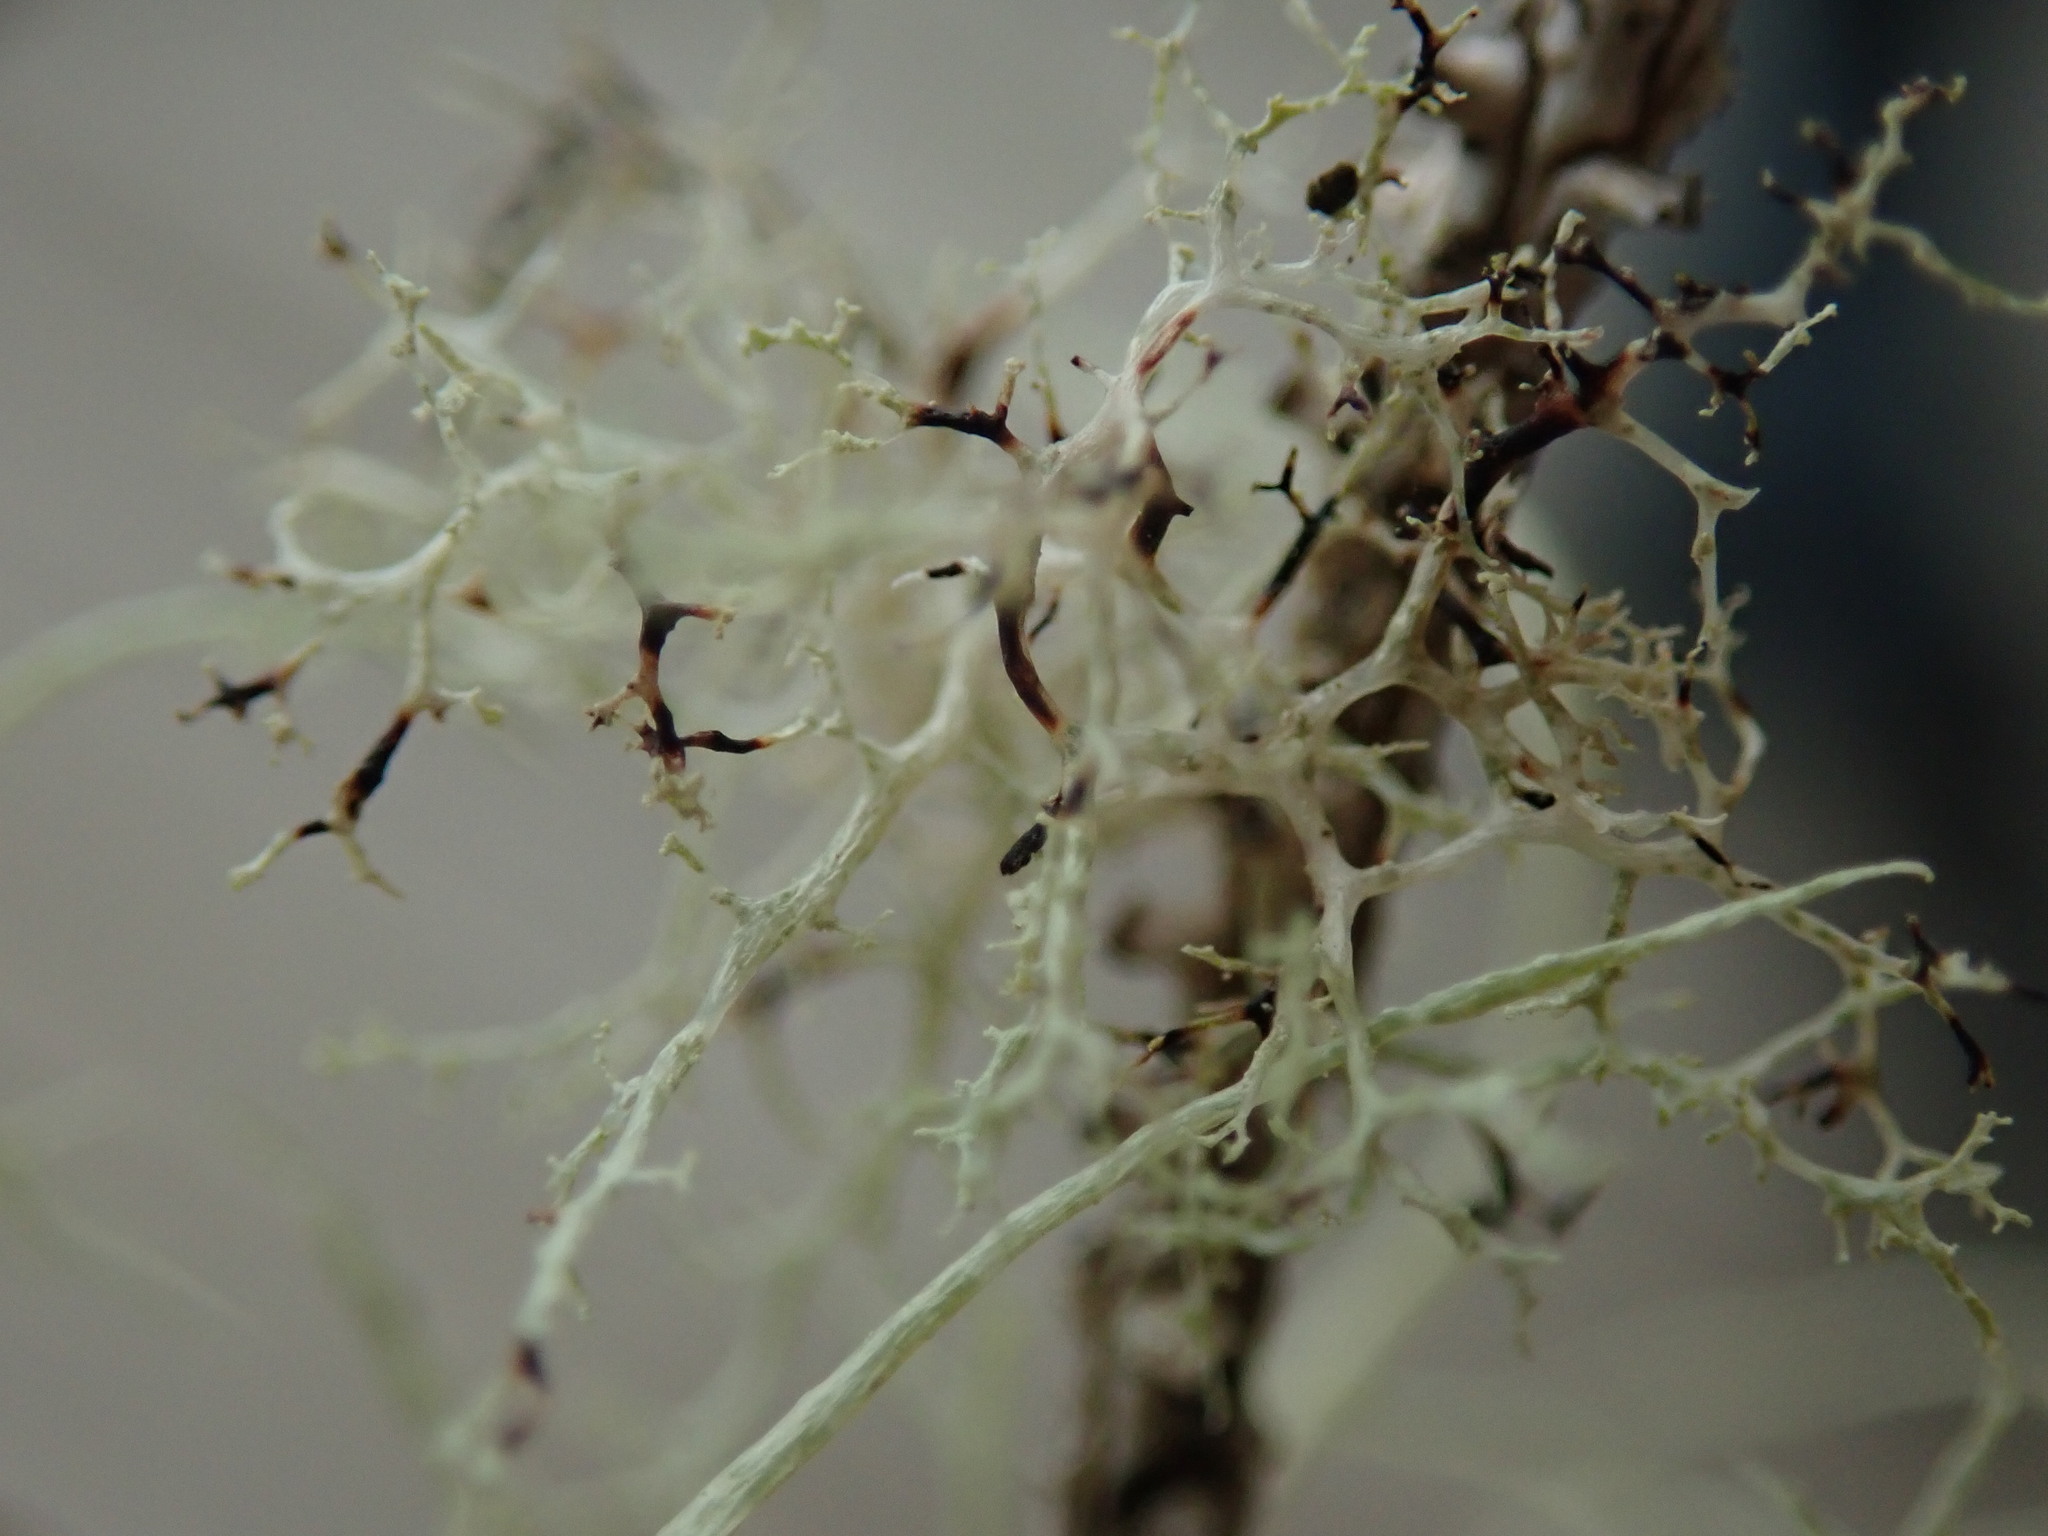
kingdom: Fungi
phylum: Ascomycota
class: Lecanoromycetes
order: Lecanorales
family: Ramalinaceae
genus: Ramalina
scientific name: Ramalina roesleri
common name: Frayed ribbon lichen
